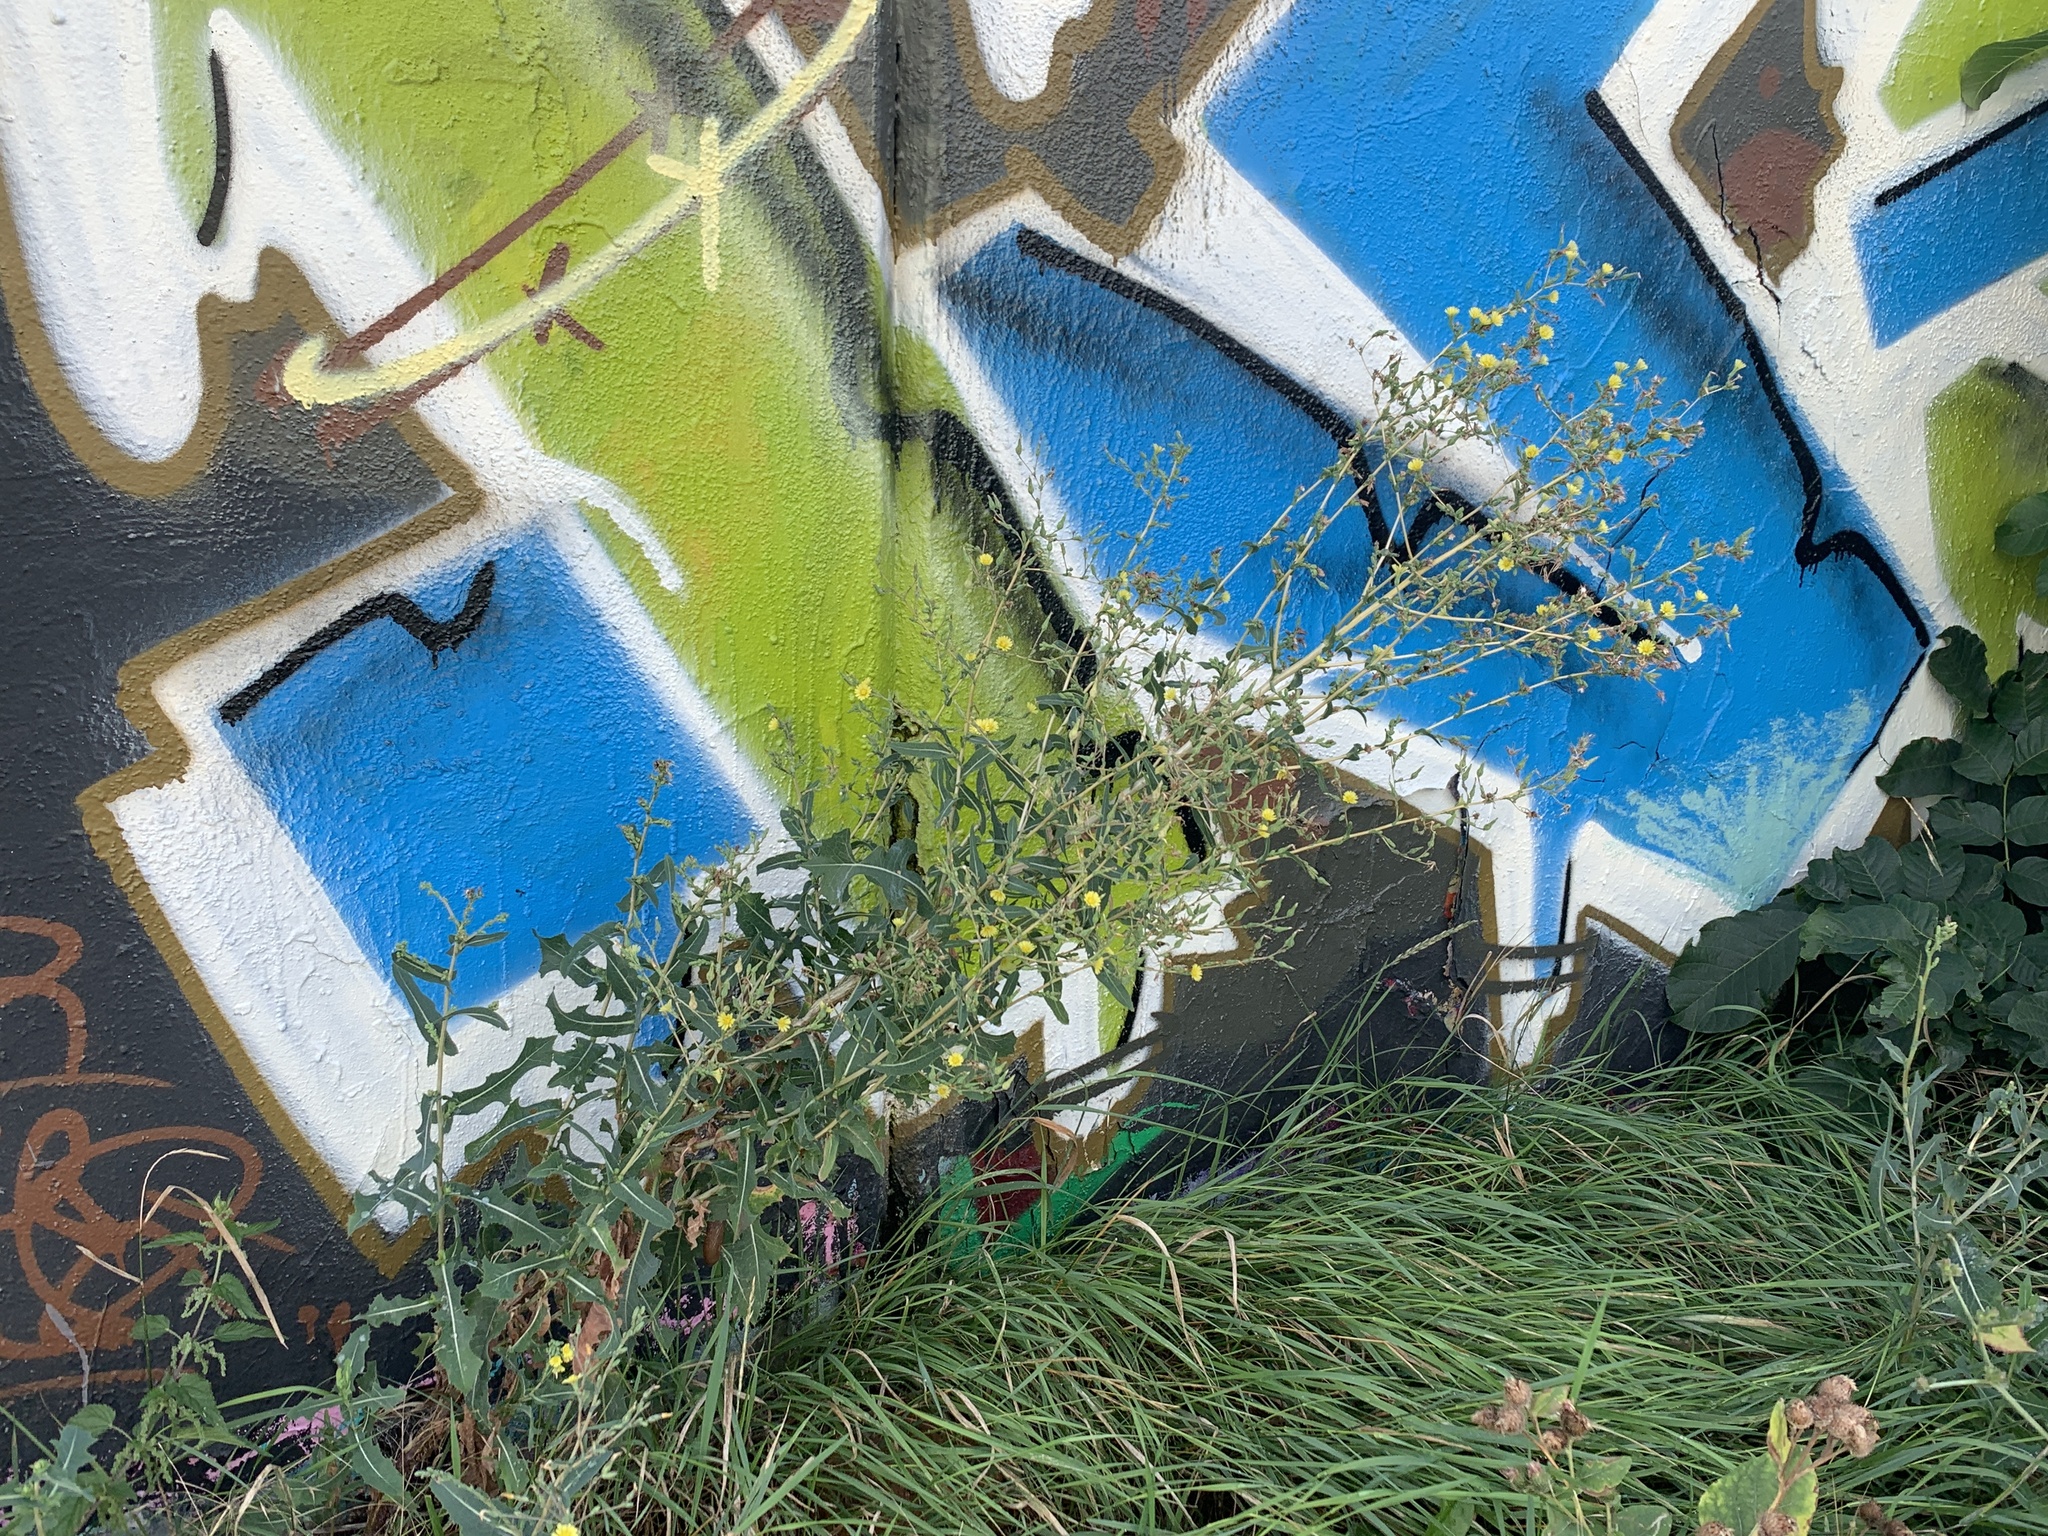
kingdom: Plantae
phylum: Tracheophyta
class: Magnoliopsida
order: Asterales
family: Asteraceae
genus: Lactuca
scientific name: Lactuca serriola
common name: Prickly lettuce
